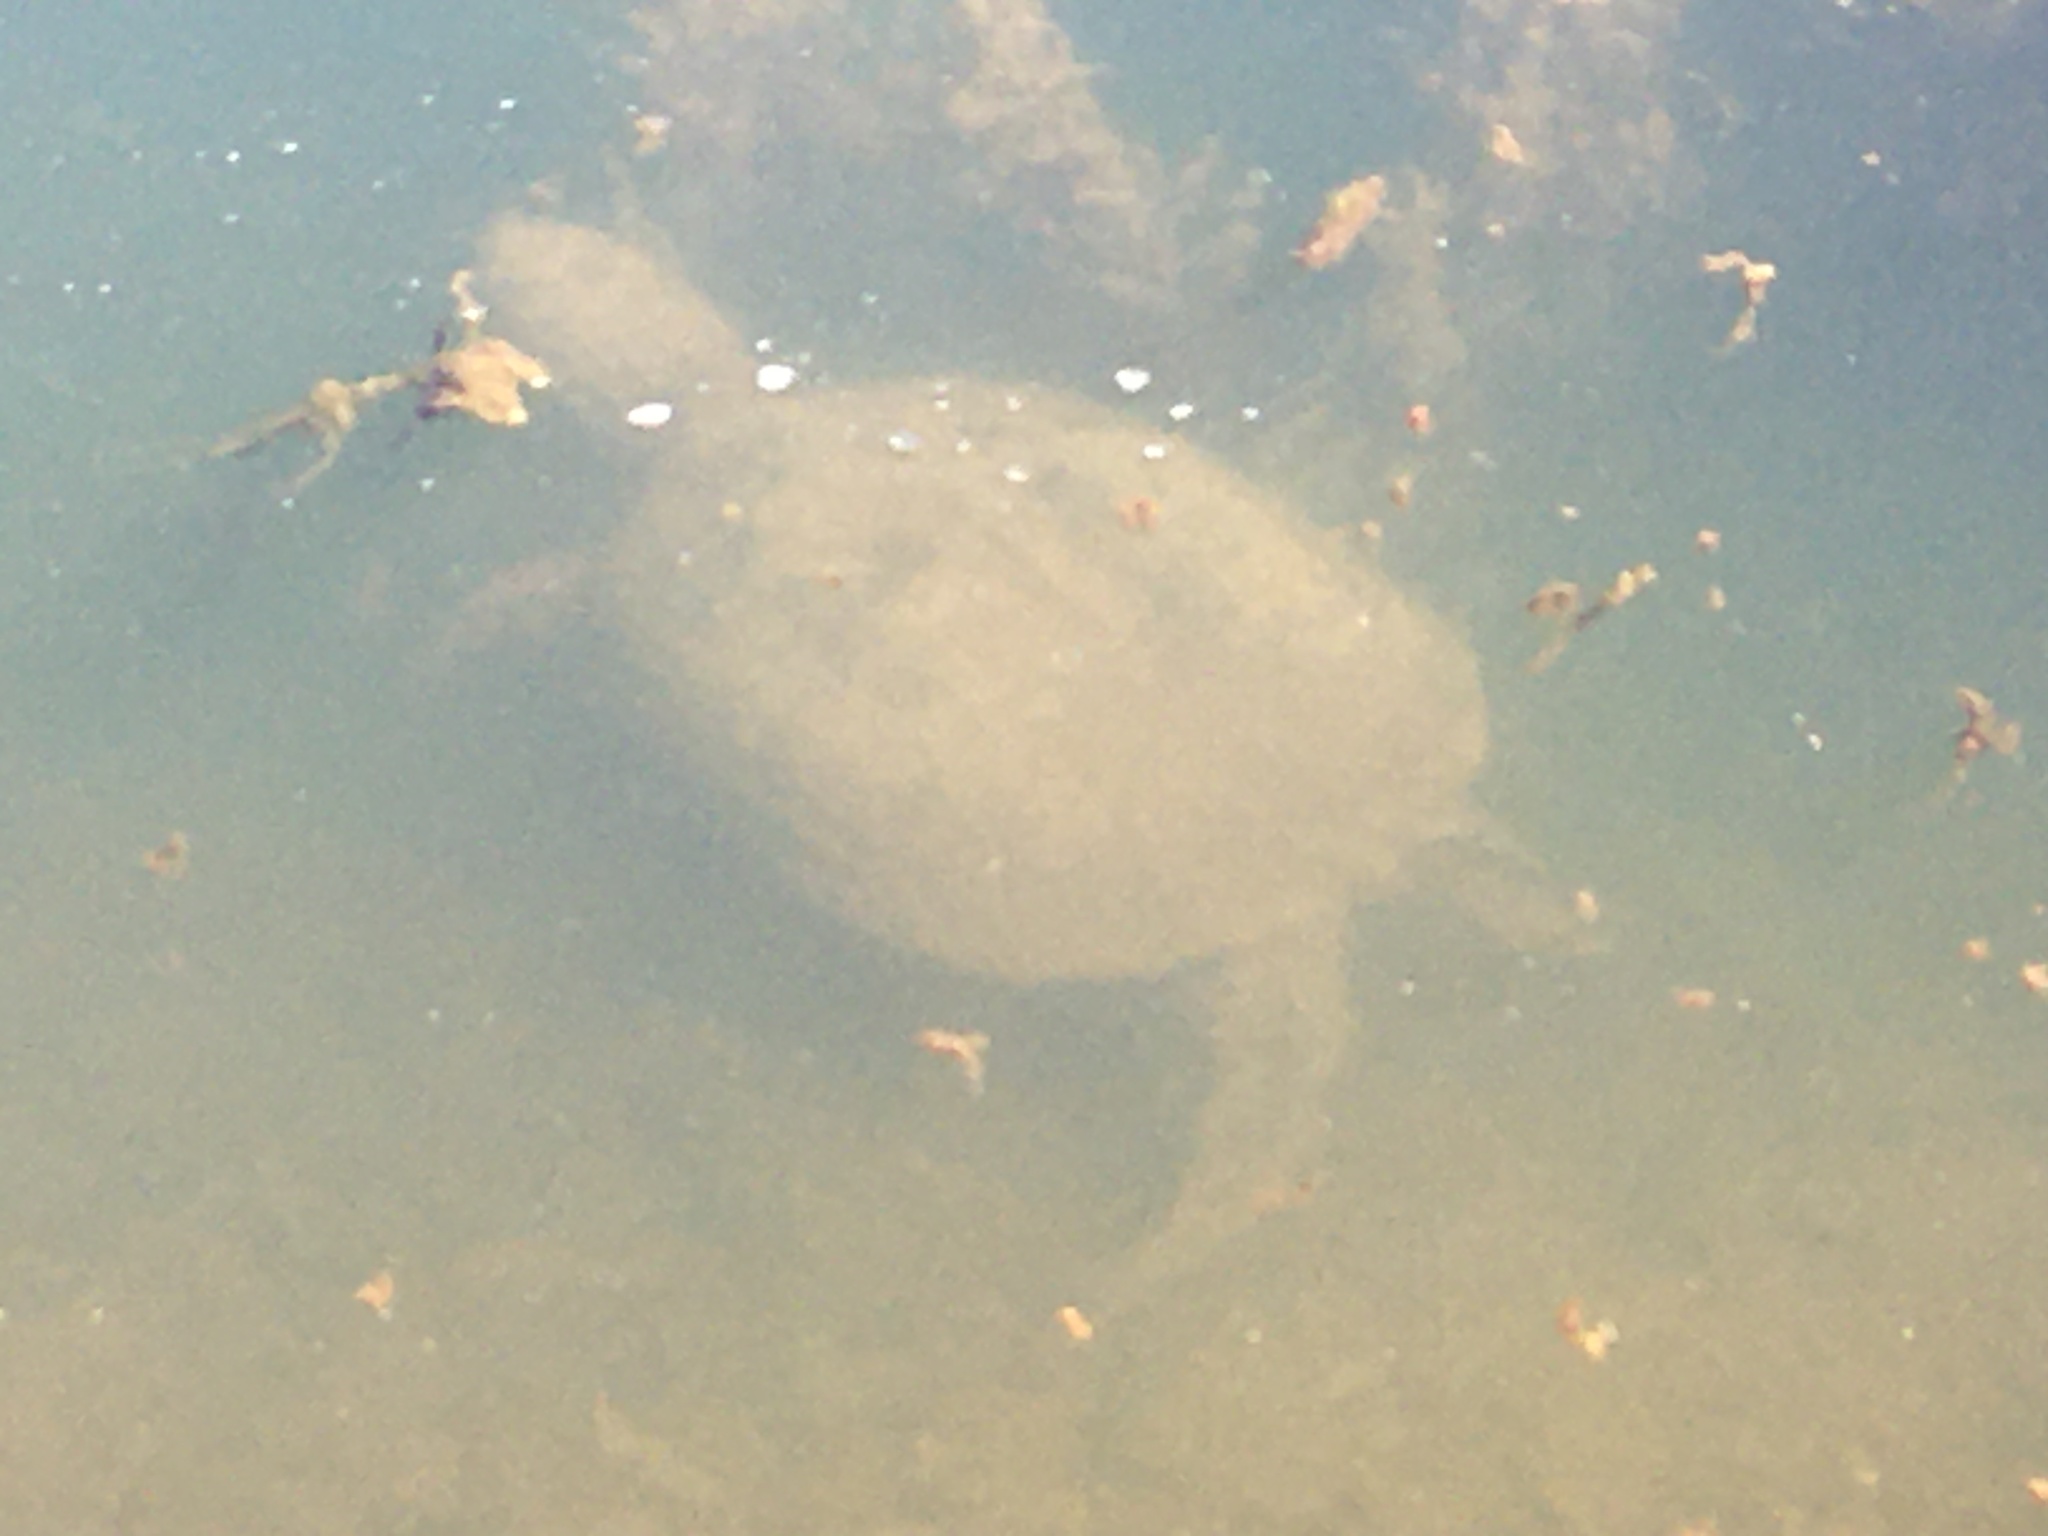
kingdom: Animalia
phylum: Chordata
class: Testudines
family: Chelydridae
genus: Chelydra
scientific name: Chelydra serpentina
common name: Common snapping turtle
